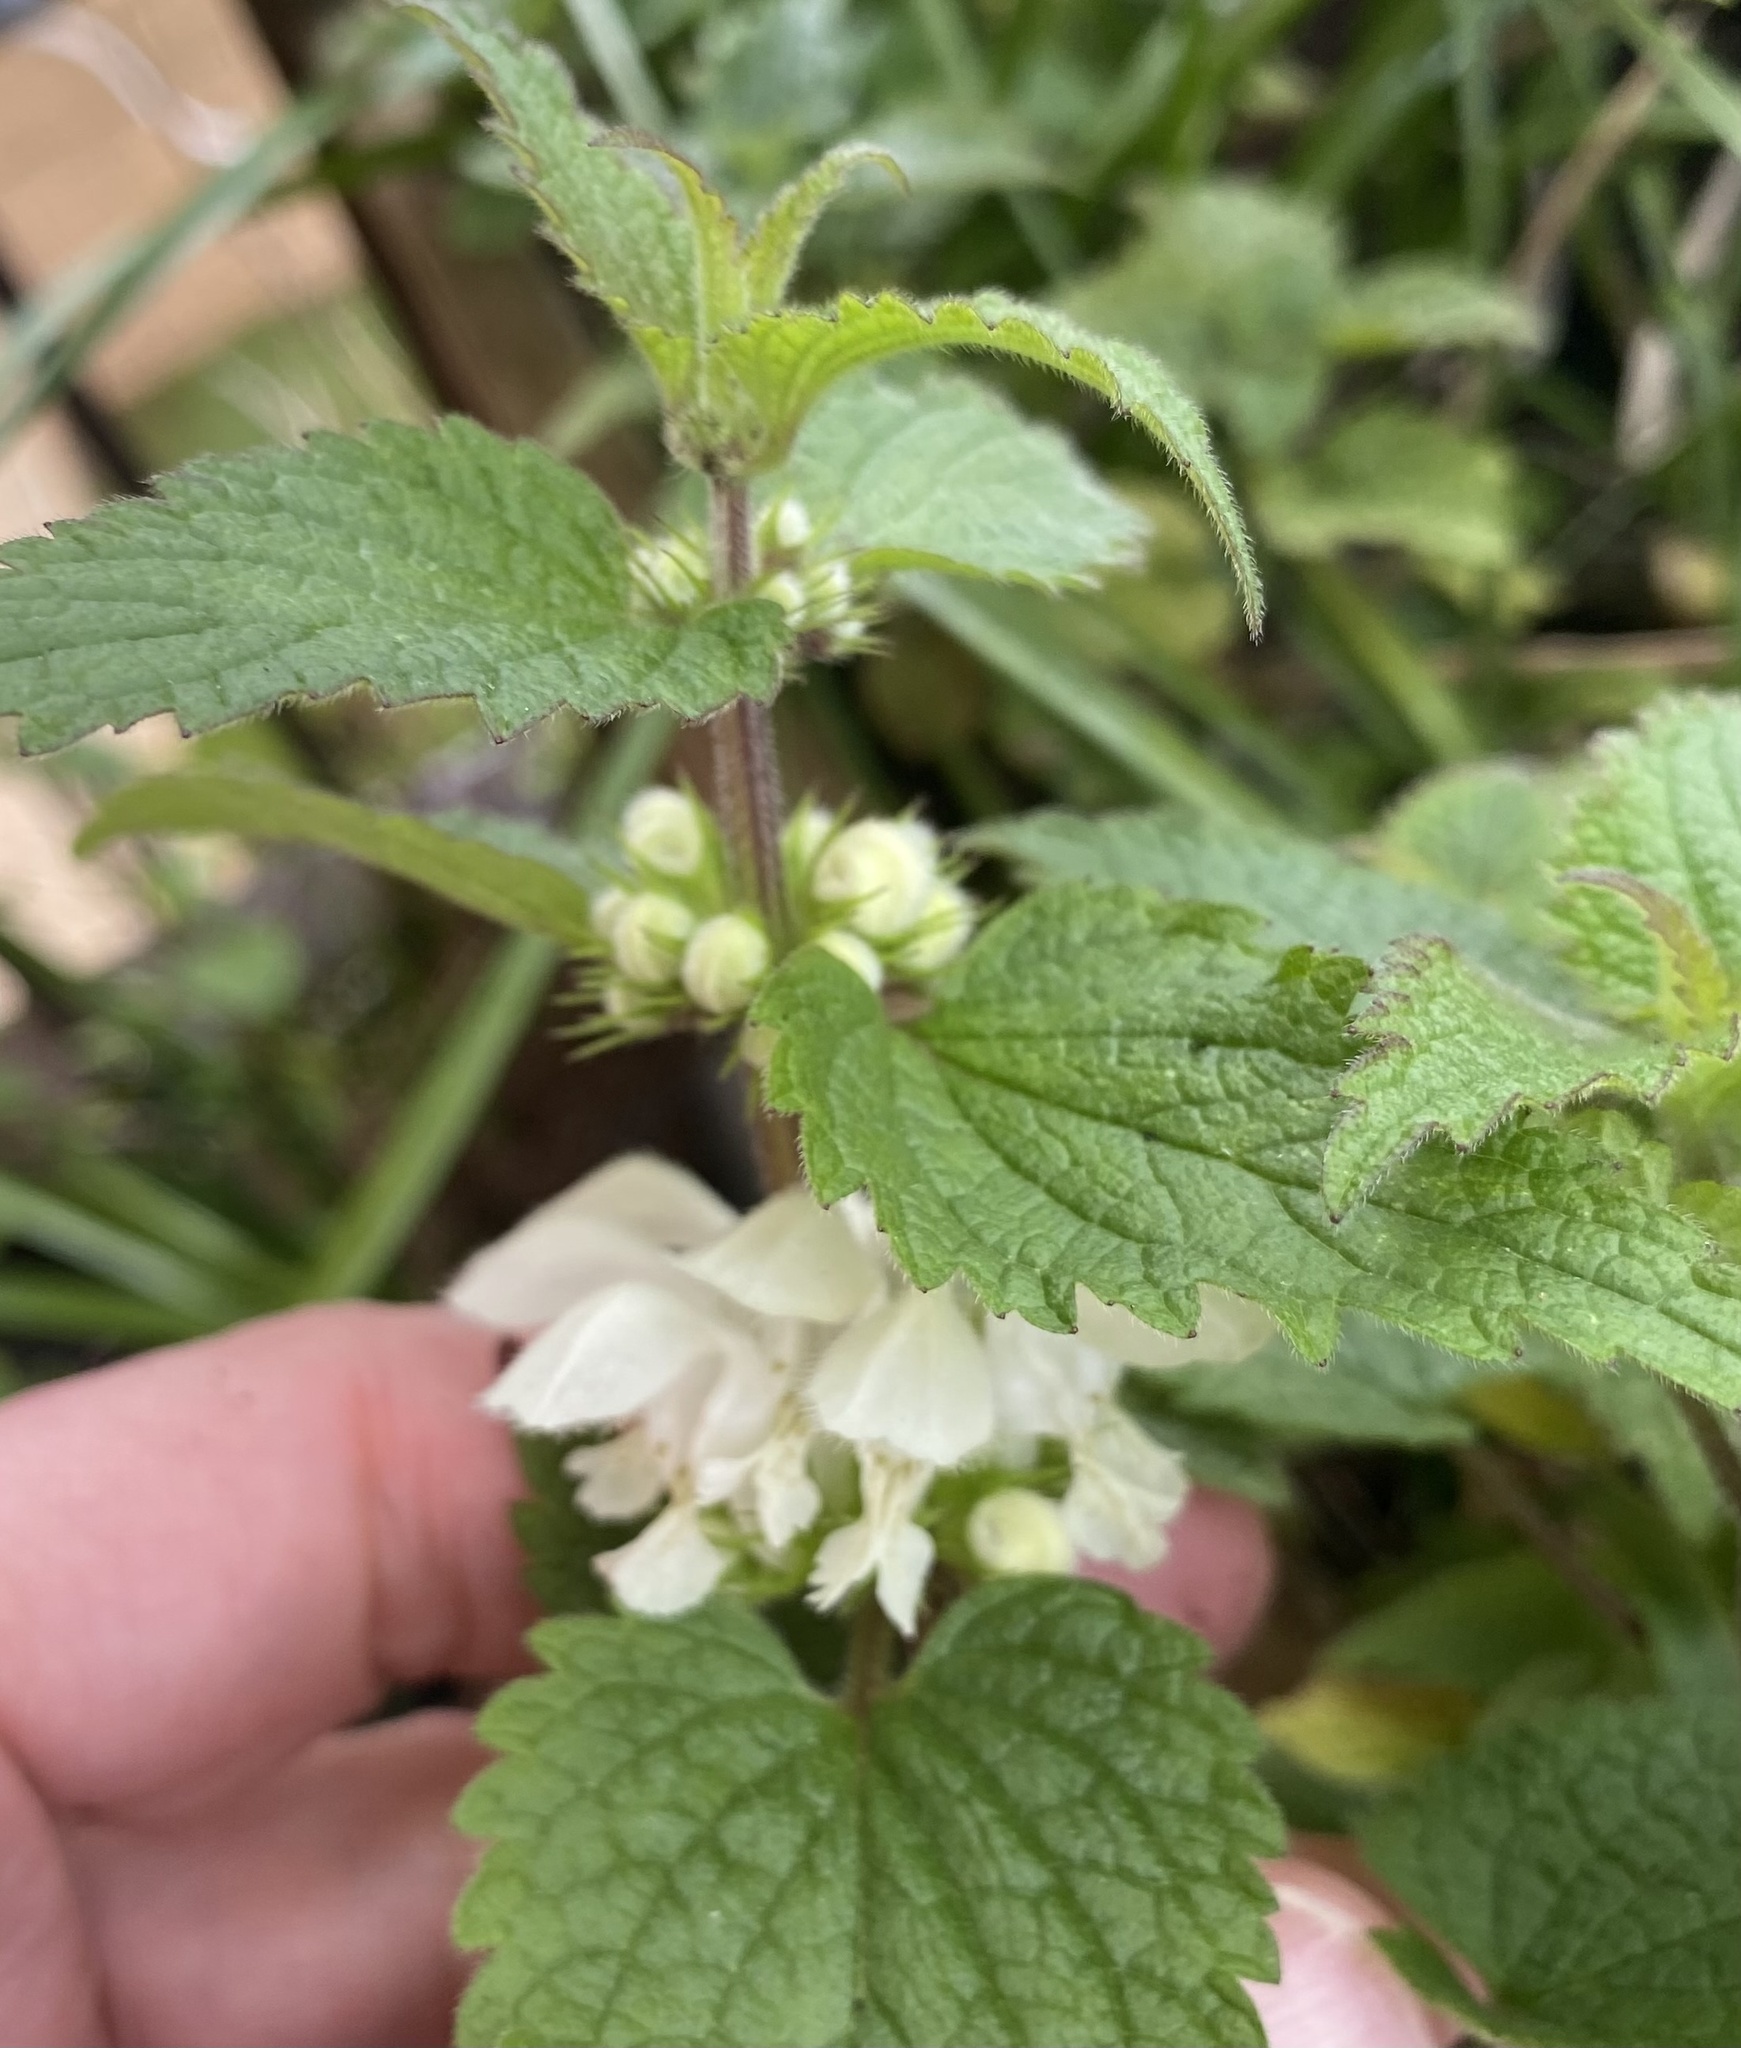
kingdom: Plantae
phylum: Tracheophyta
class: Magnoliopsida
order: Lamiales
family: Lamiaceae
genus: Lamium
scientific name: Lamium album
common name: White dead-nettle
